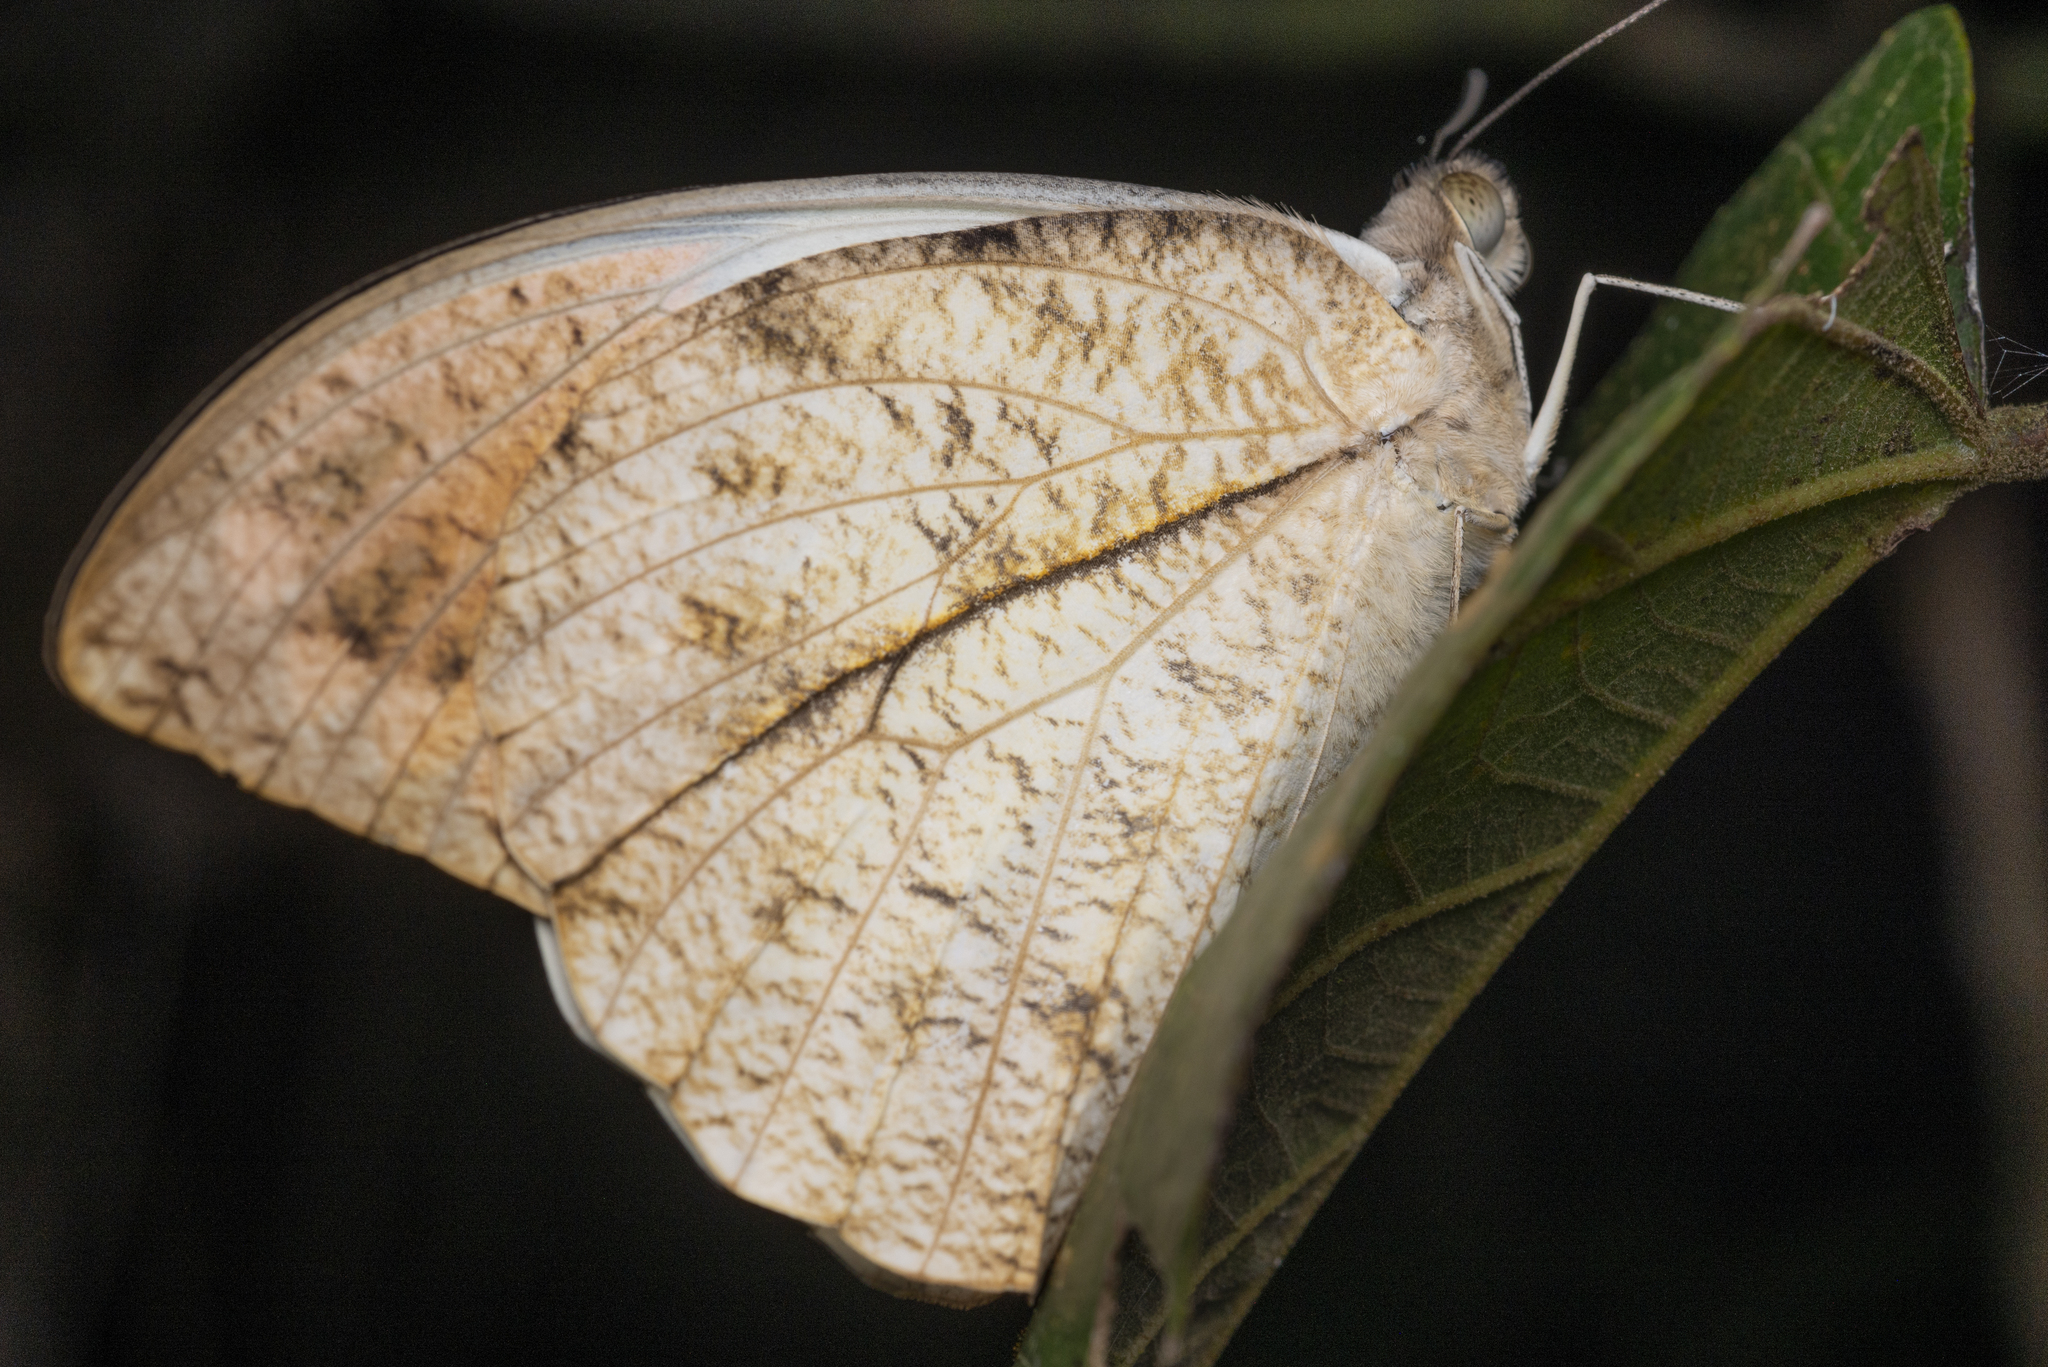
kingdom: Animalia
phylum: Arthropoda
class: Insecta
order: Lepidoptera
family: Pieridae
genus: Hebomoia
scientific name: Hebomoia glaucippe
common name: Great orange tip
